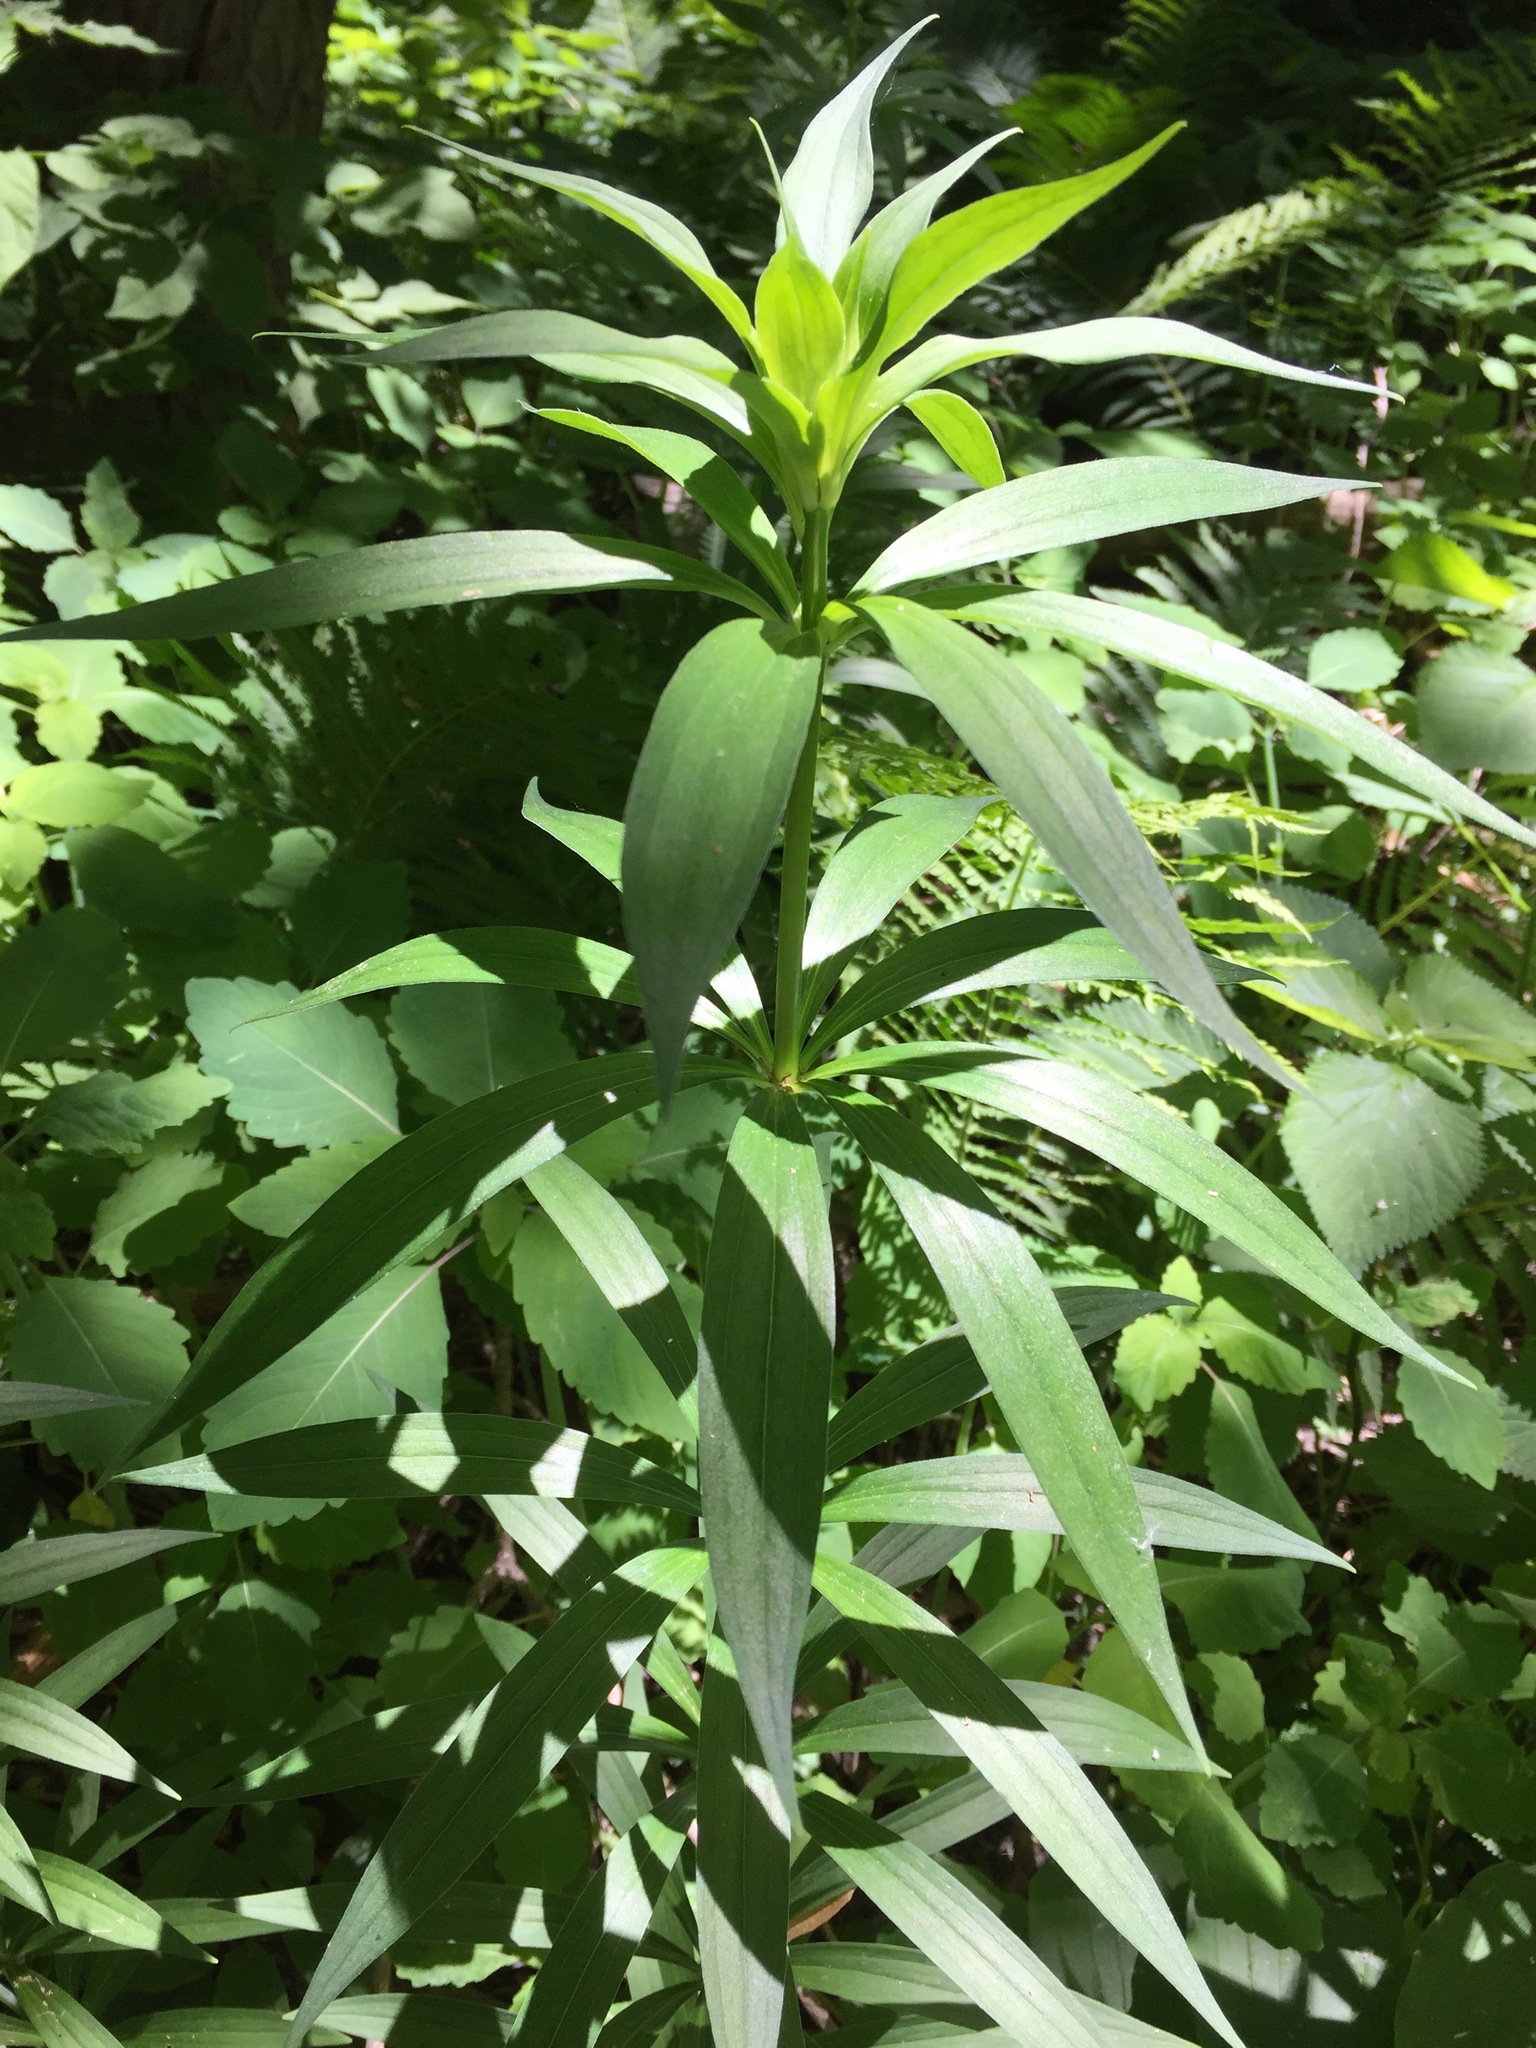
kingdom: Plantae
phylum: Tracheophyta
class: Liliopsida
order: Liliales
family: Liliaceae
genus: Lilium
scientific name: Lilium canadense
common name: Canada lily
